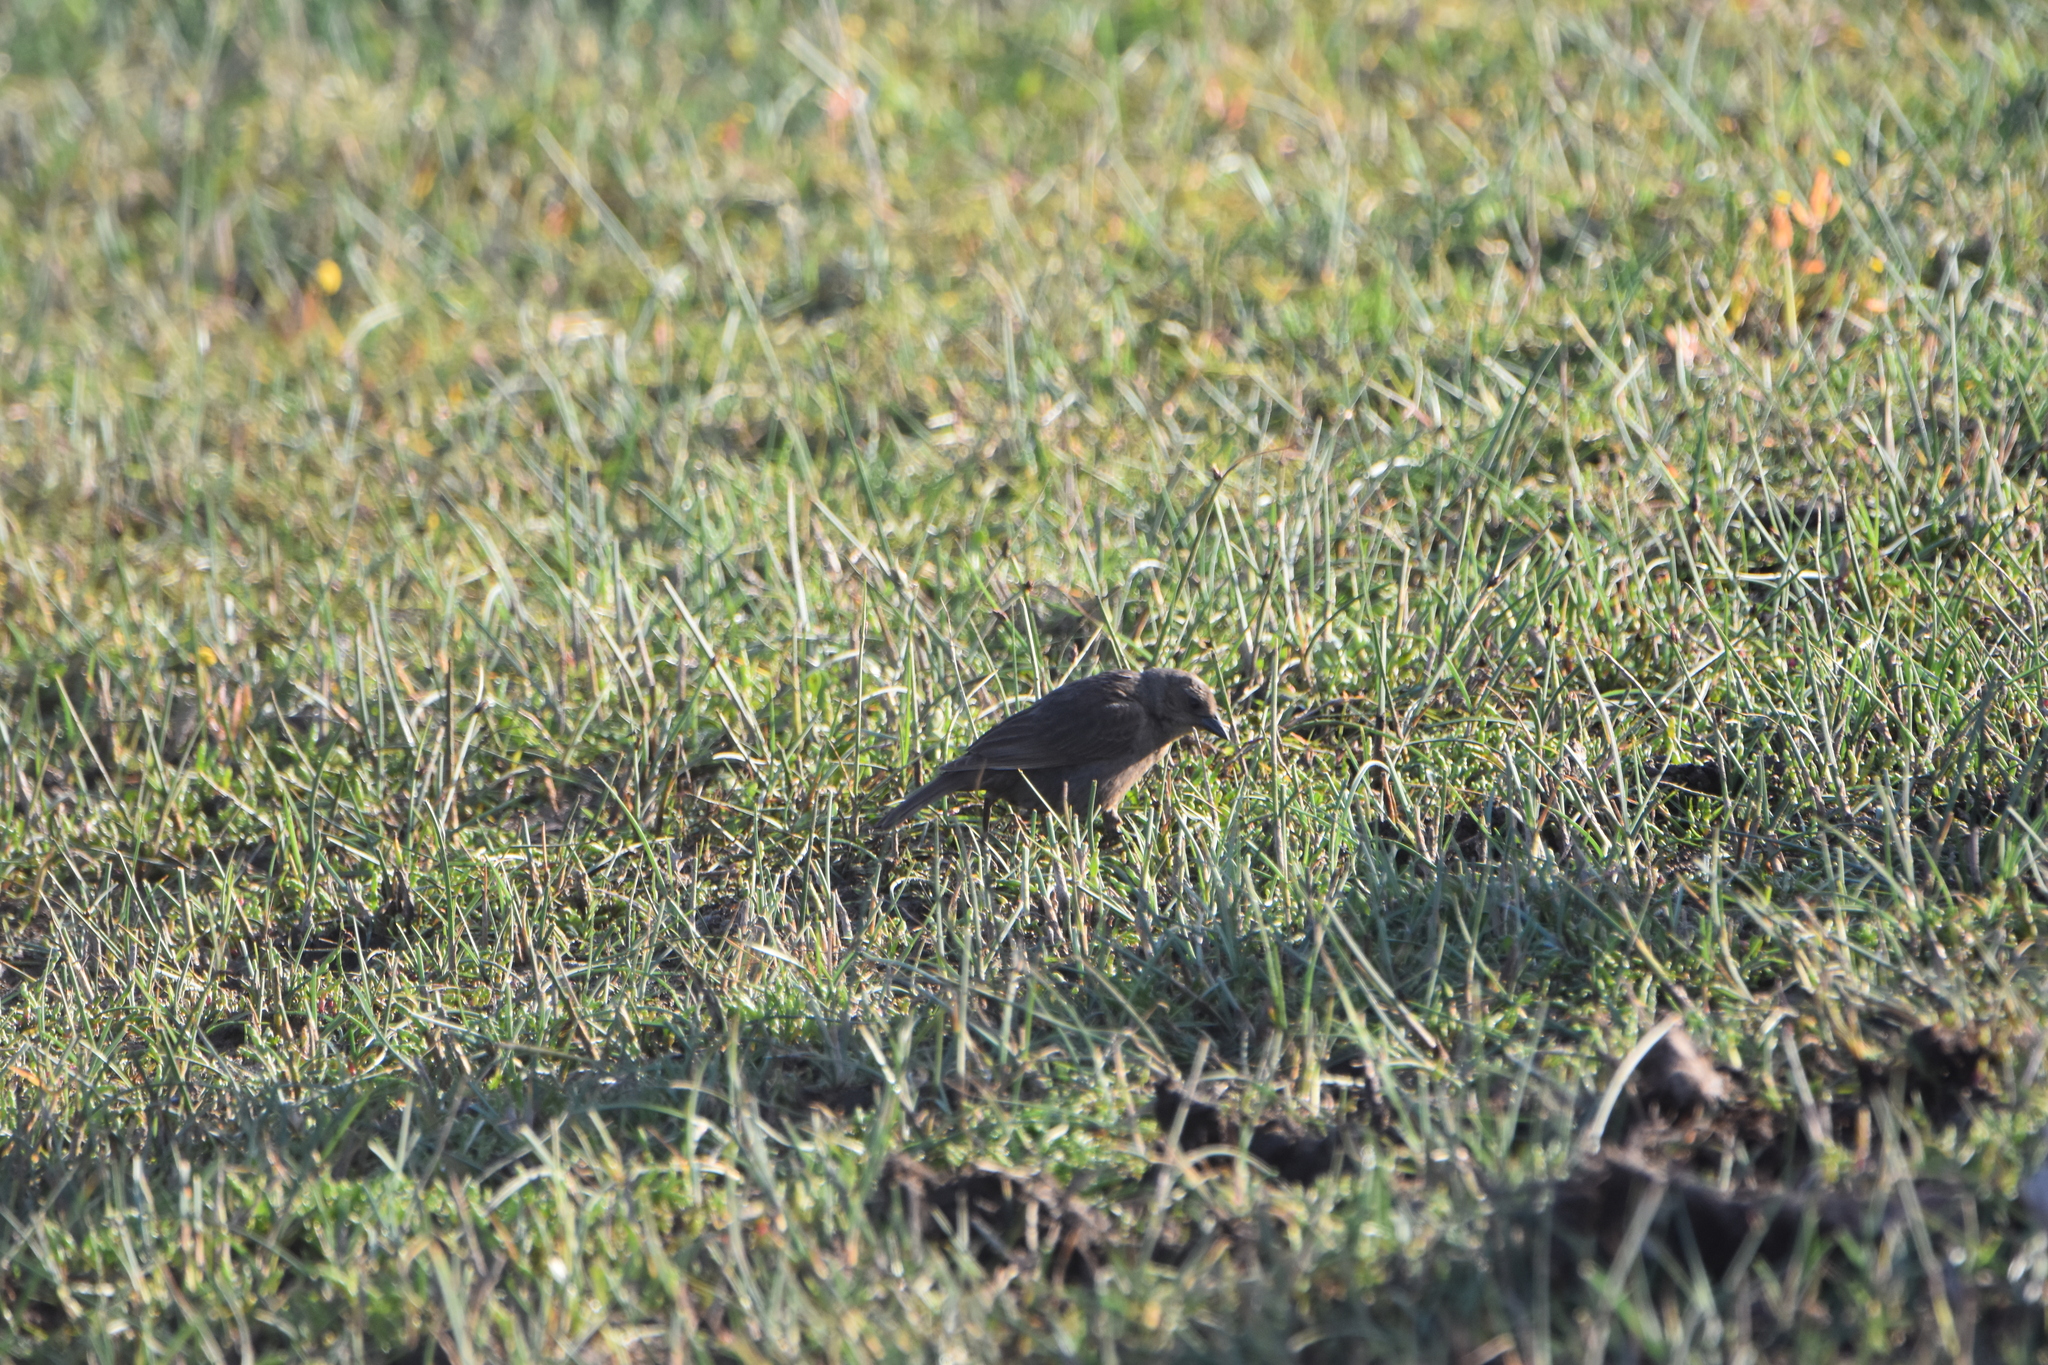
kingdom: Animalia
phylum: Chordata
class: Aves
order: Passeriformes
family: Icteridae
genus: Molothrus
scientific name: Molothrus bonariensis
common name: Shiny cowbird
